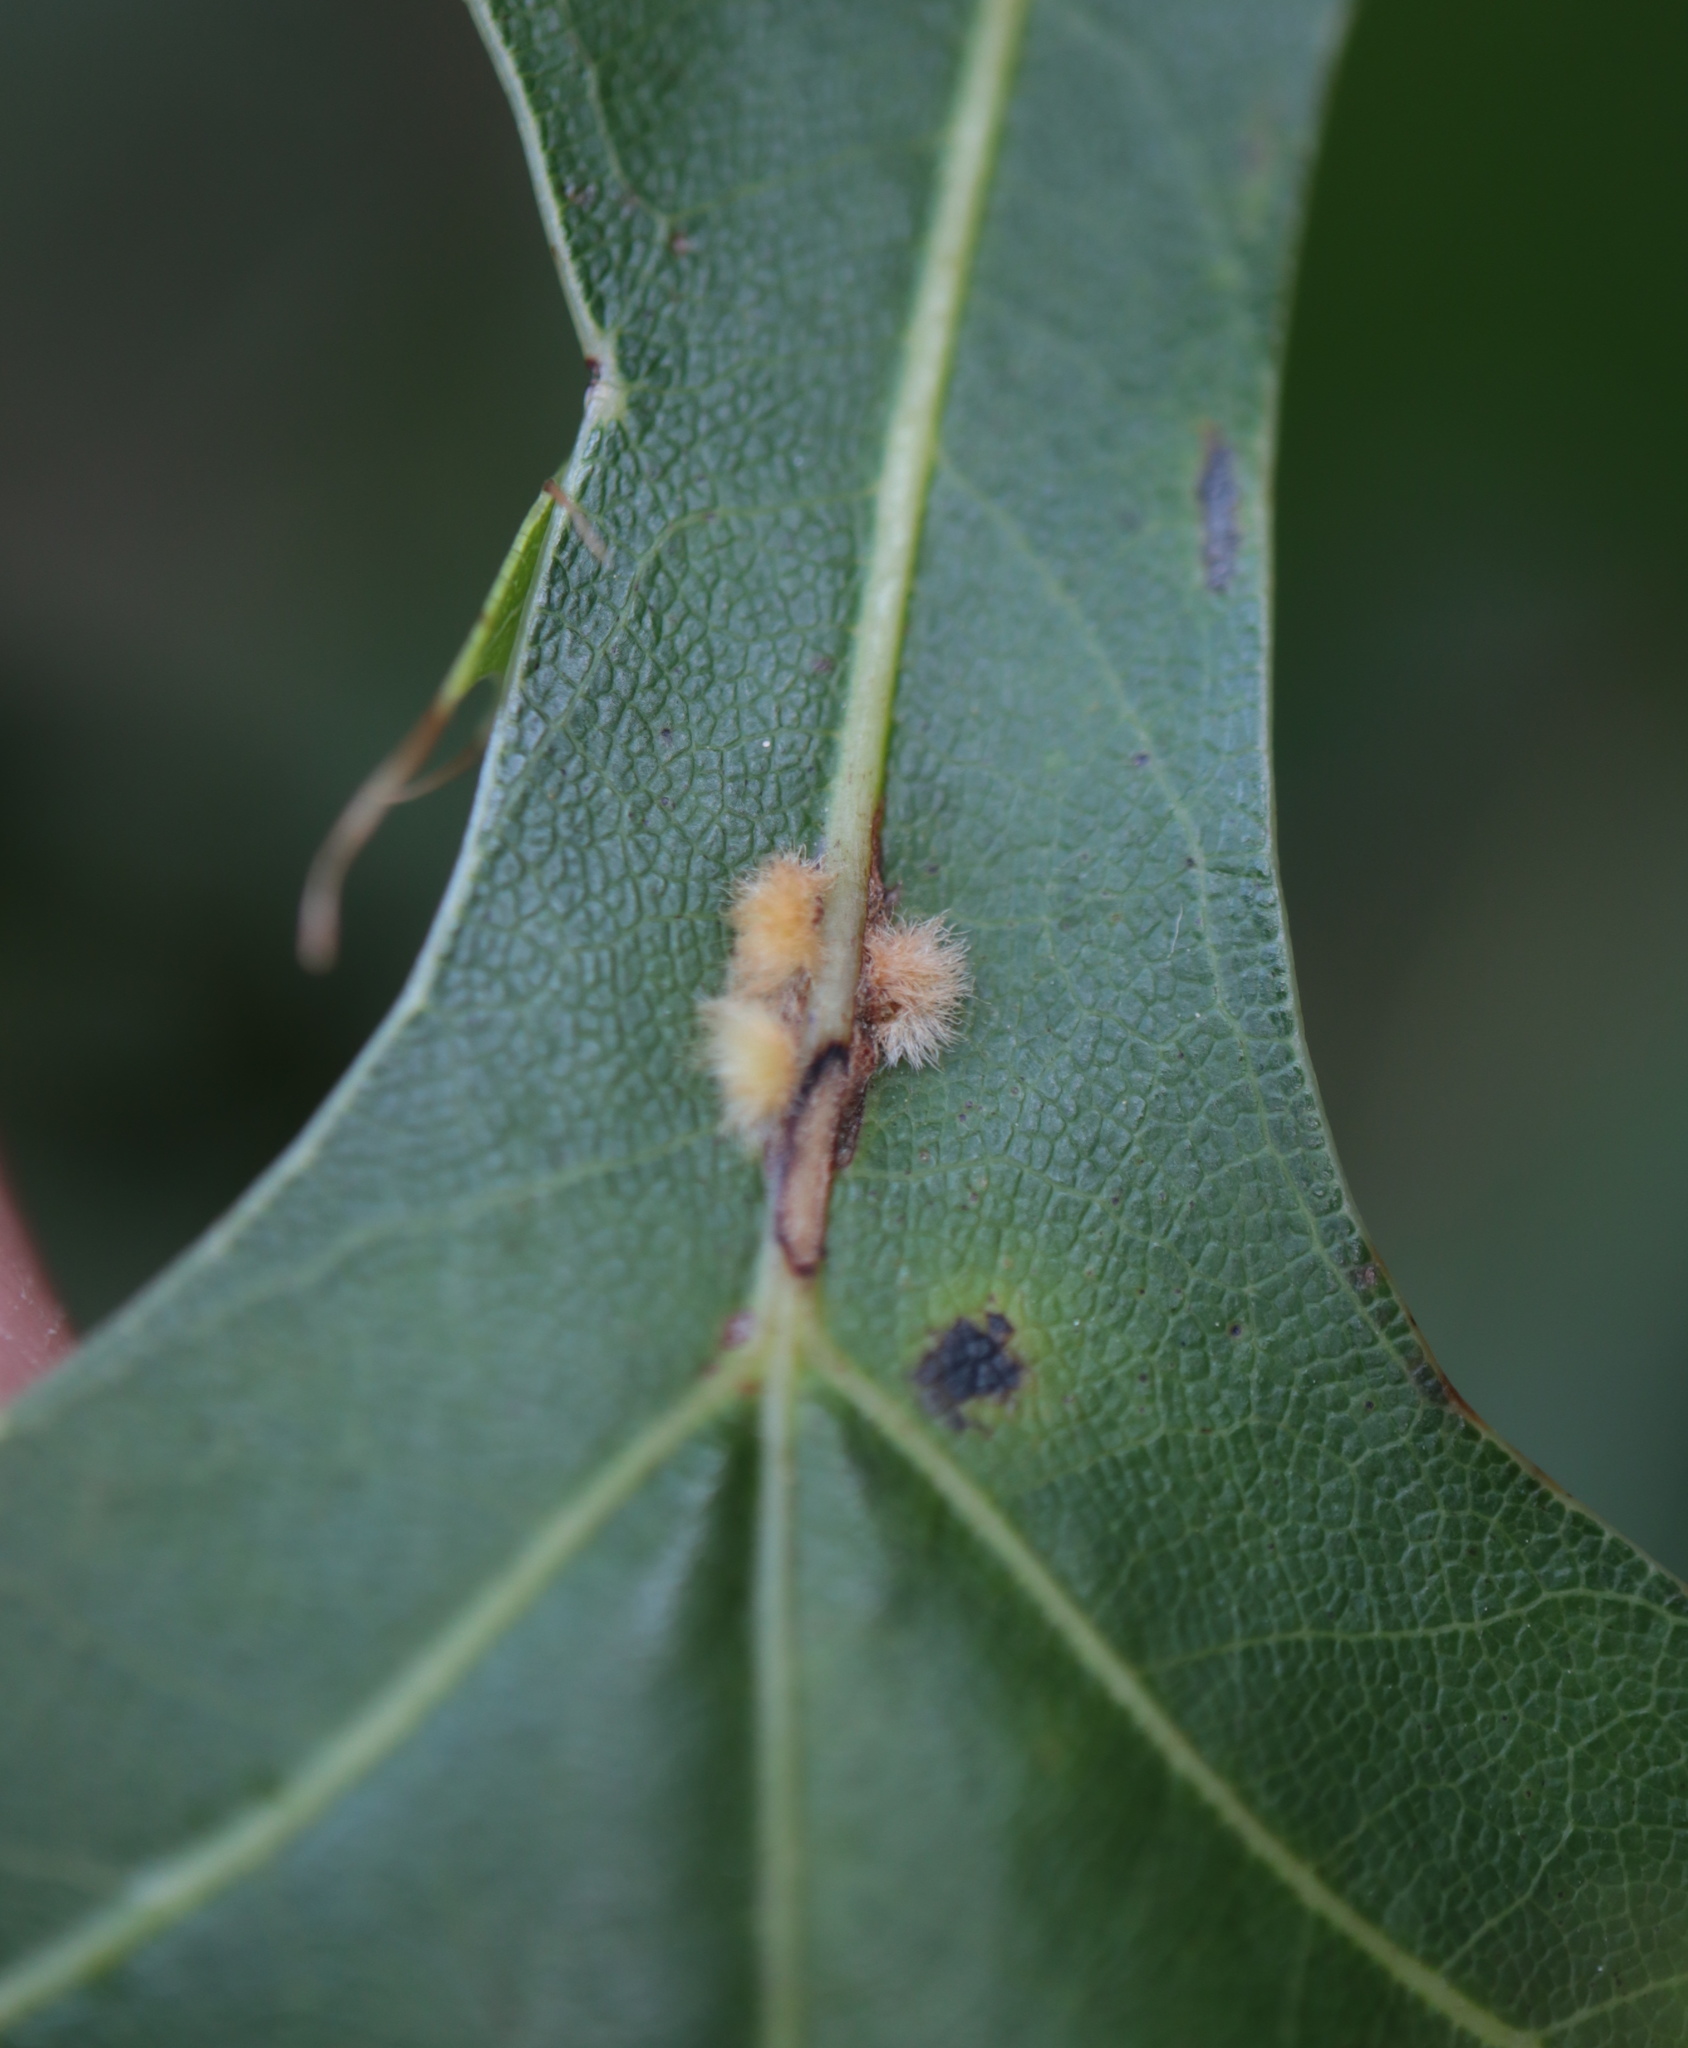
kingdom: Animalia
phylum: Arthropoda
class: Insecta
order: Hymenoptera
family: Cynipidae
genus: Callirhytis
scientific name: Callirhytis
